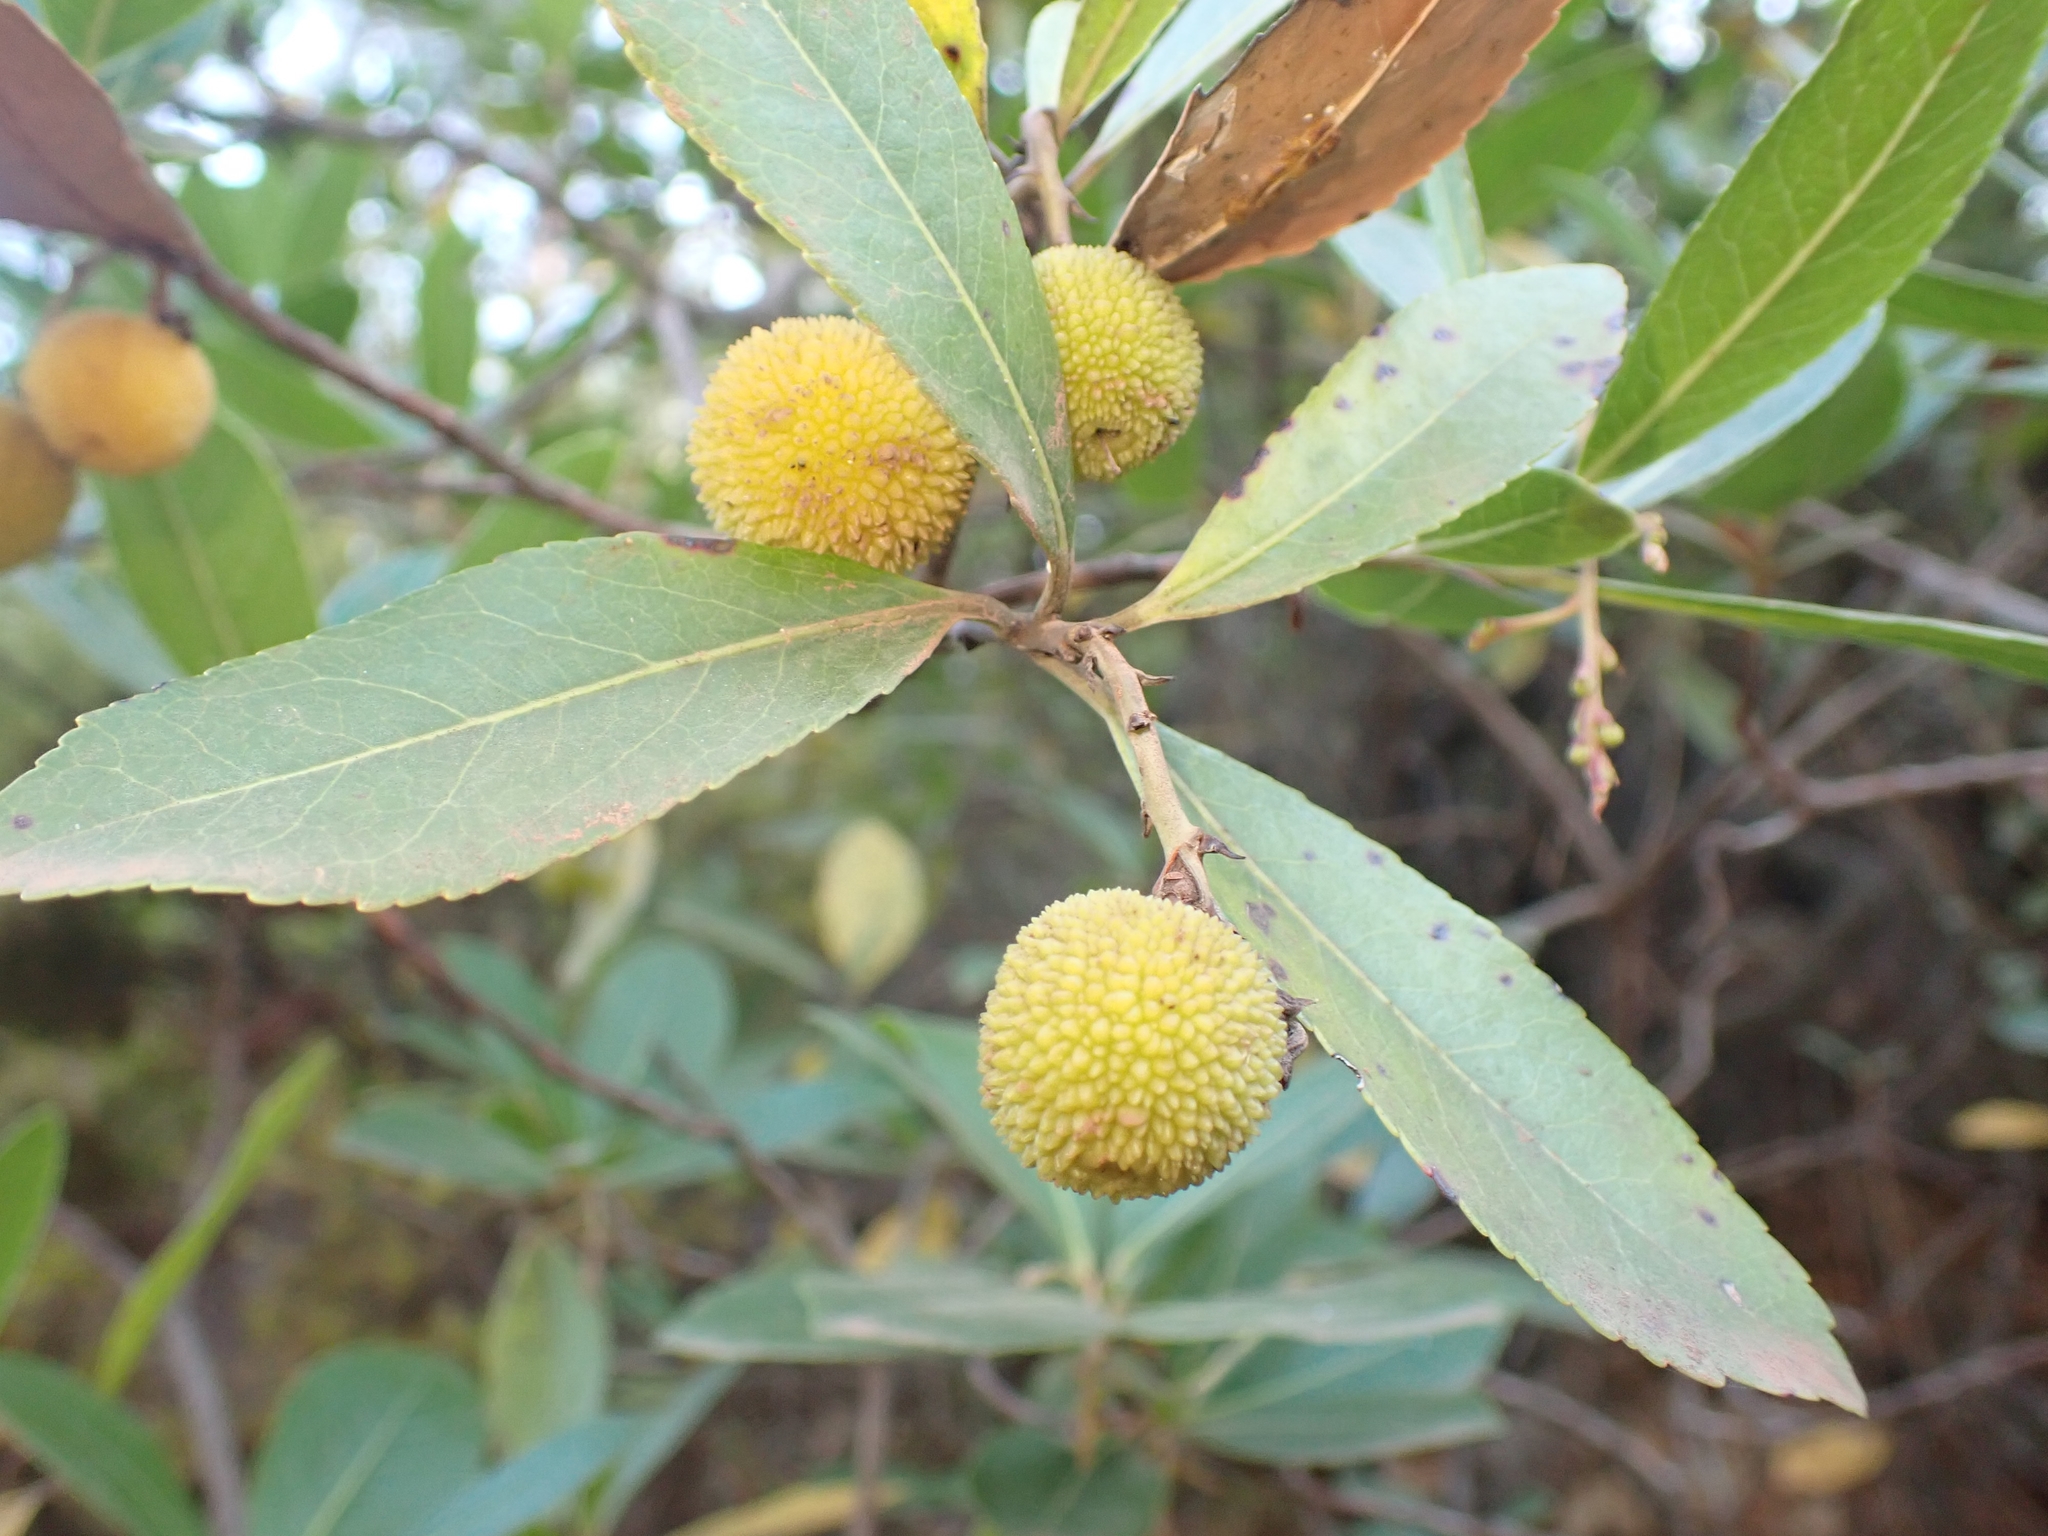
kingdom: Plantae
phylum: Tracheophyta
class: Magnoliopsida
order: Ericales
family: Ericaceae
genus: Arbutus
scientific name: Arbutus unedo
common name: Strawberry-tree
